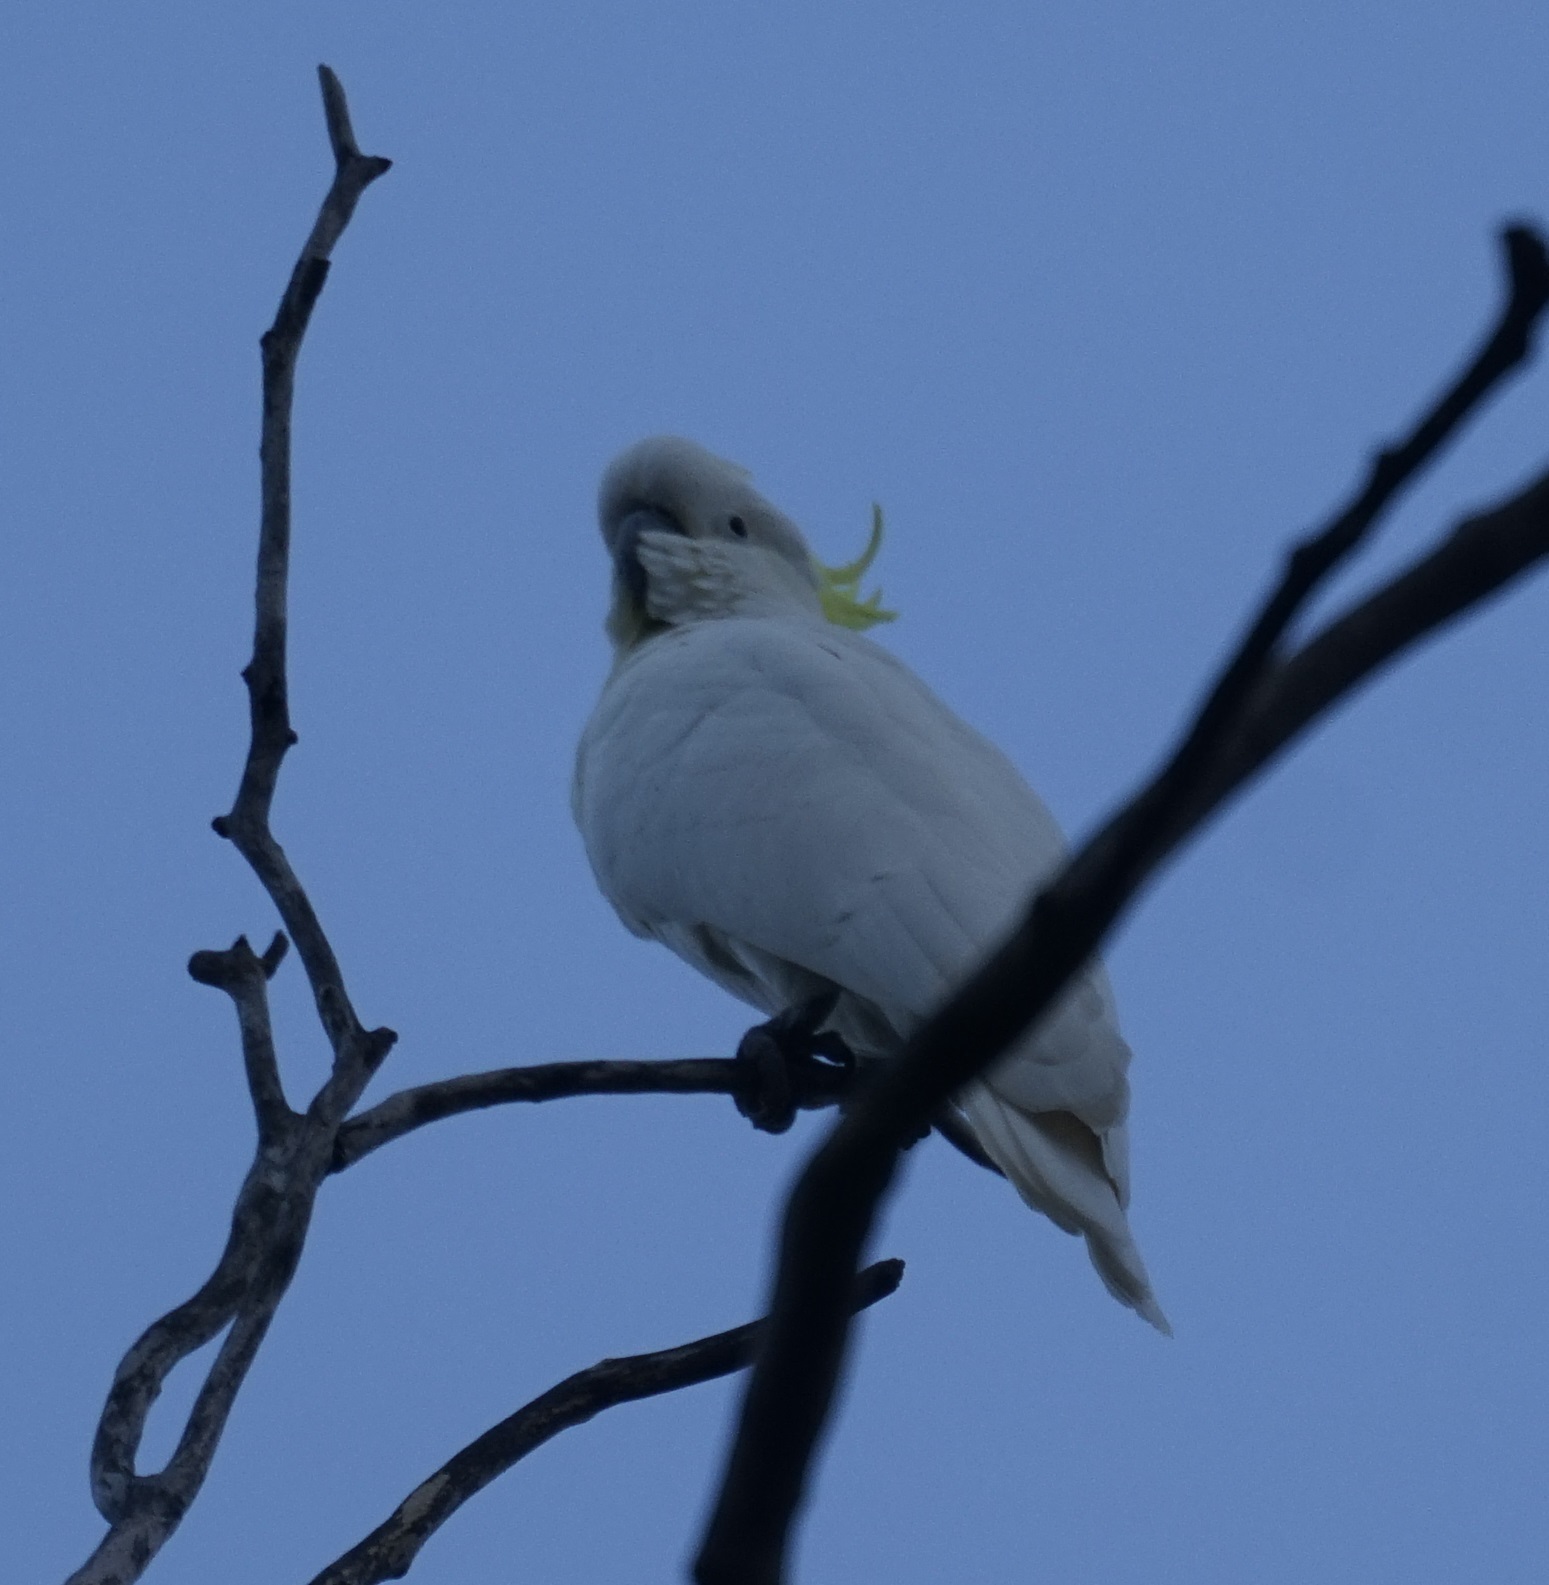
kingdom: Animalia
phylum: Chordata
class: Aves
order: Psittaciformes
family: Psittacidae
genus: Cacatua
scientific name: Cacatua galerita
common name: Sulphur-crested cockatoo
